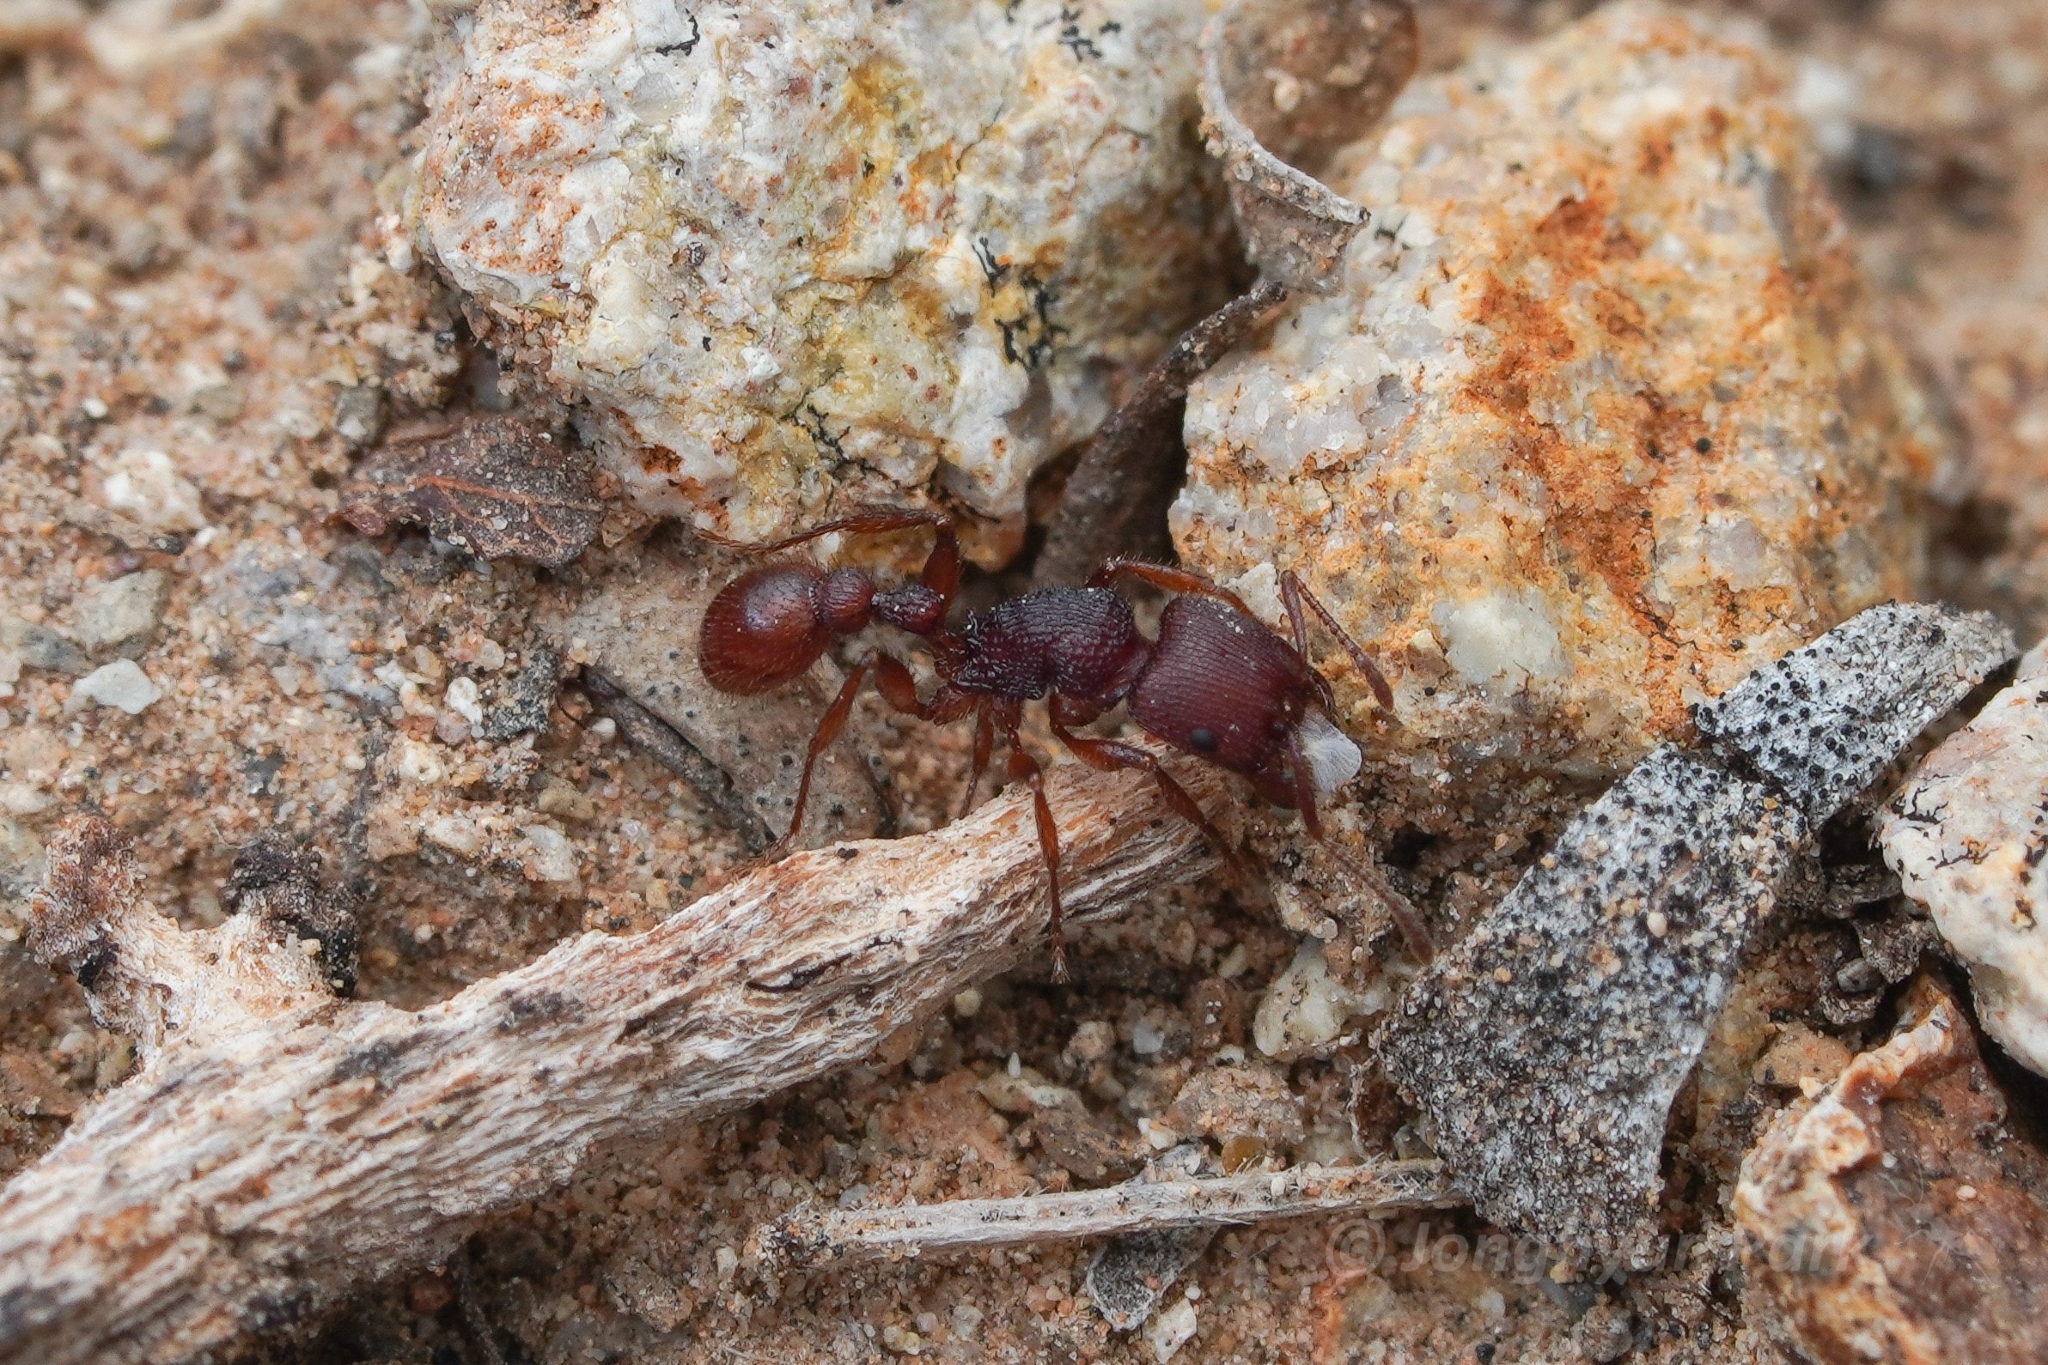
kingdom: Animalia
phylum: Arthropoda
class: Insecta
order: Hymenoptera
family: Formicidae
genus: Pogonomyrmex
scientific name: Pogonomyrmex imberbiculus
